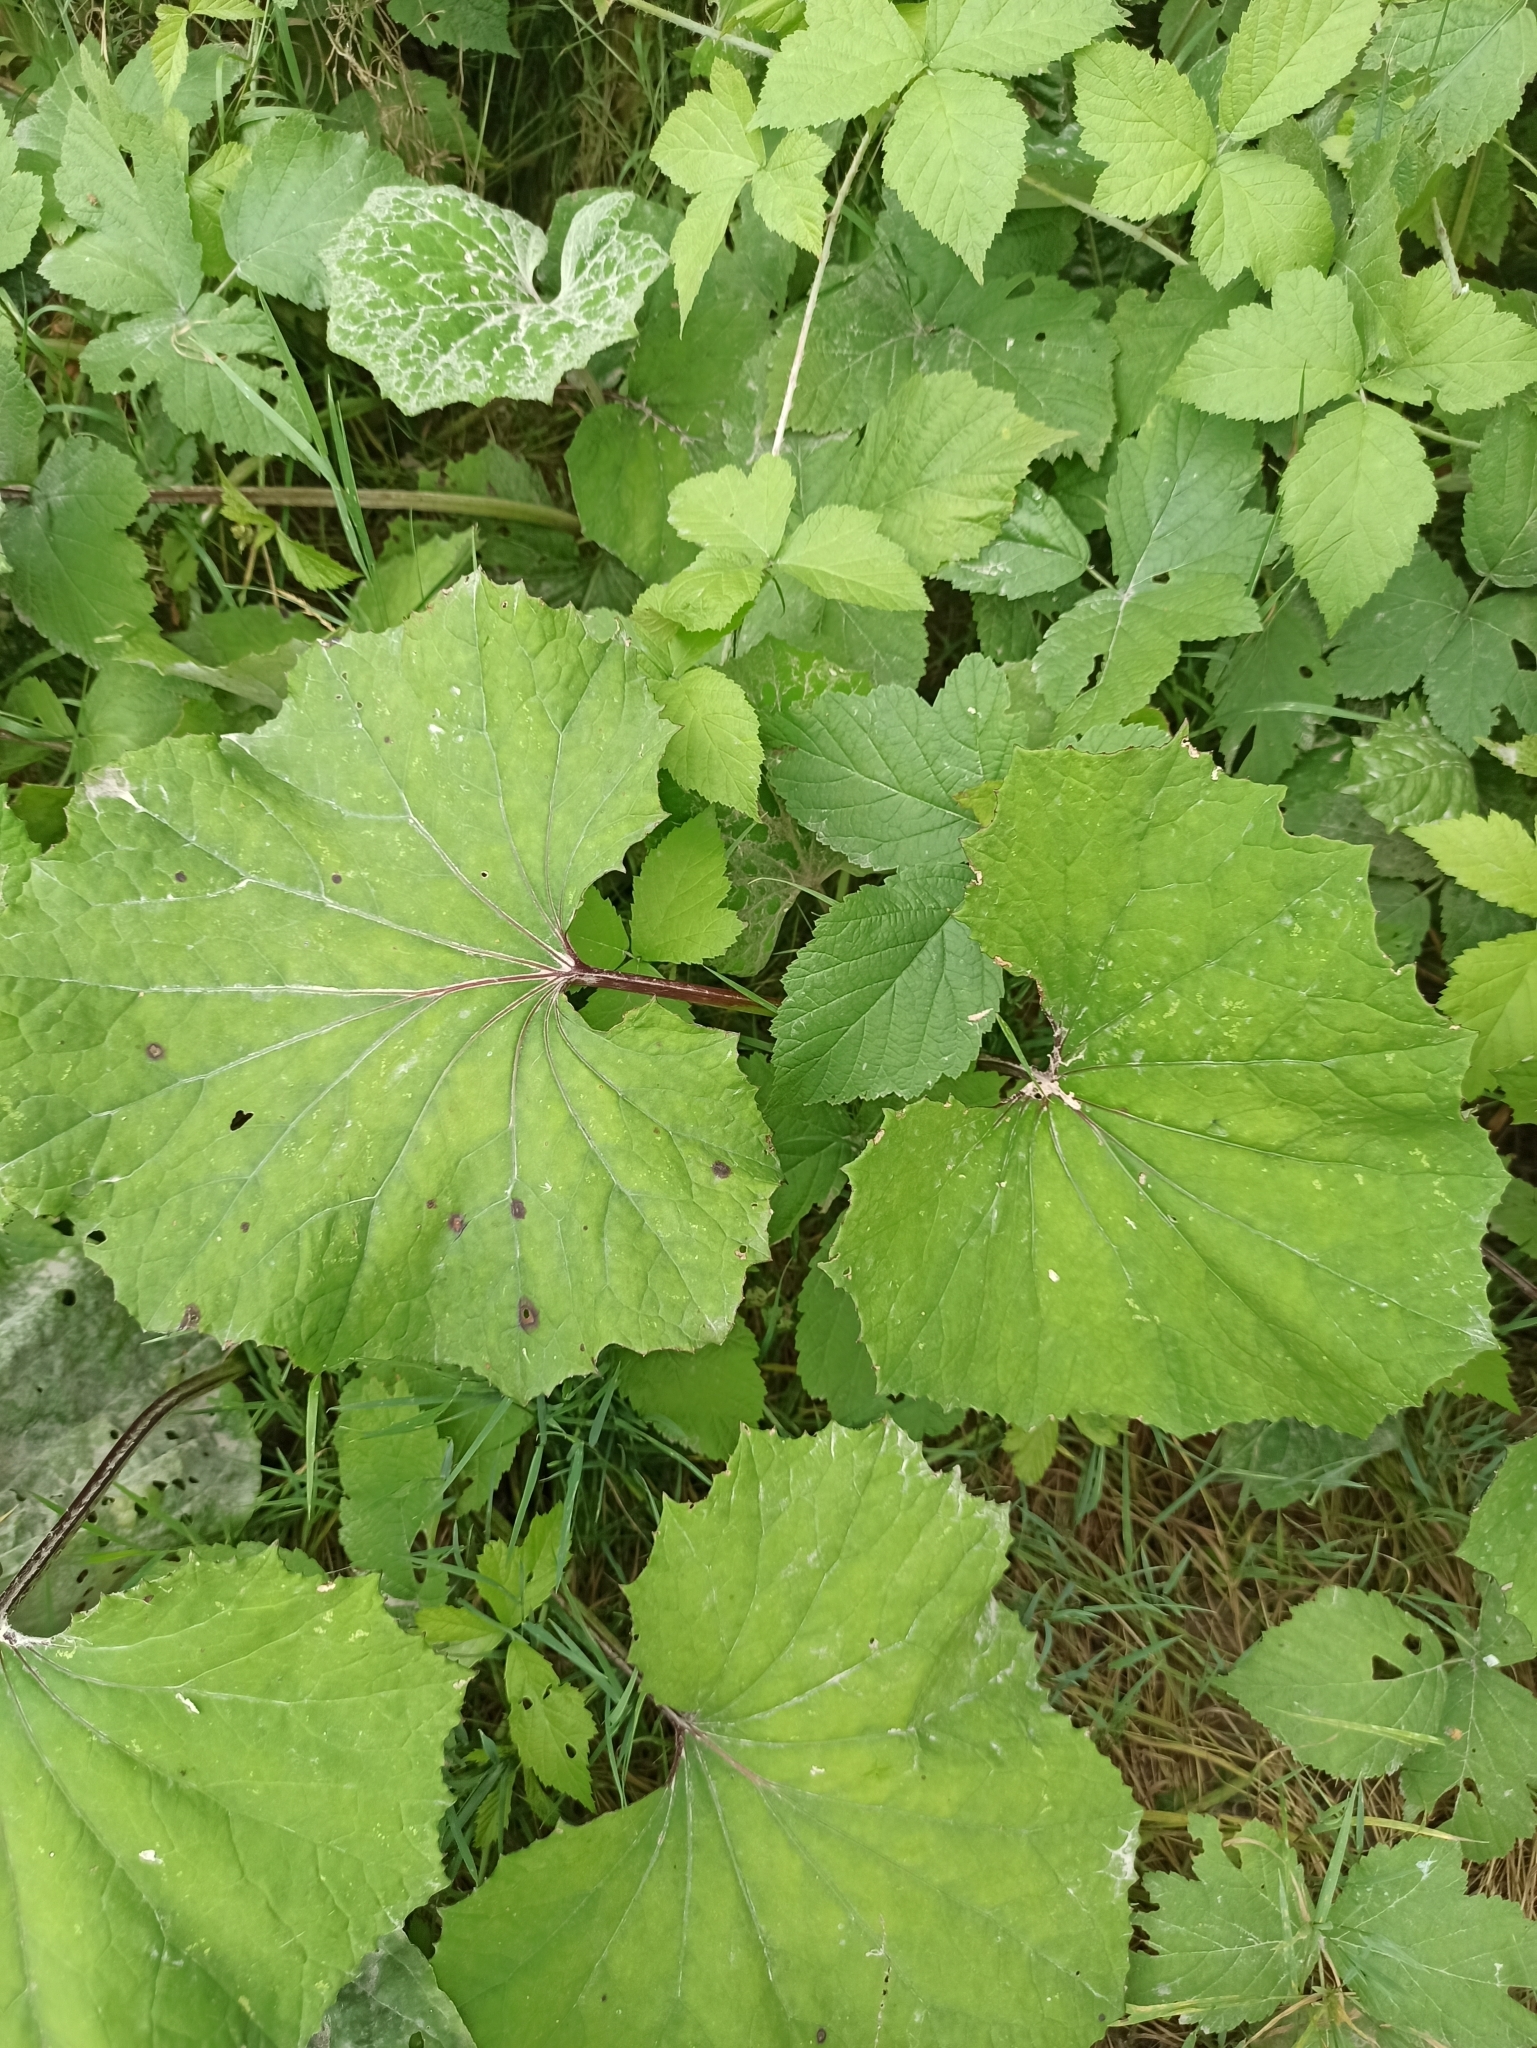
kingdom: Plantae
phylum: Tracheophyta
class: Magnoliopsida
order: Asterales
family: Asteraceae
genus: Tussilago
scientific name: Tussilago farfara
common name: Coltsfoot
